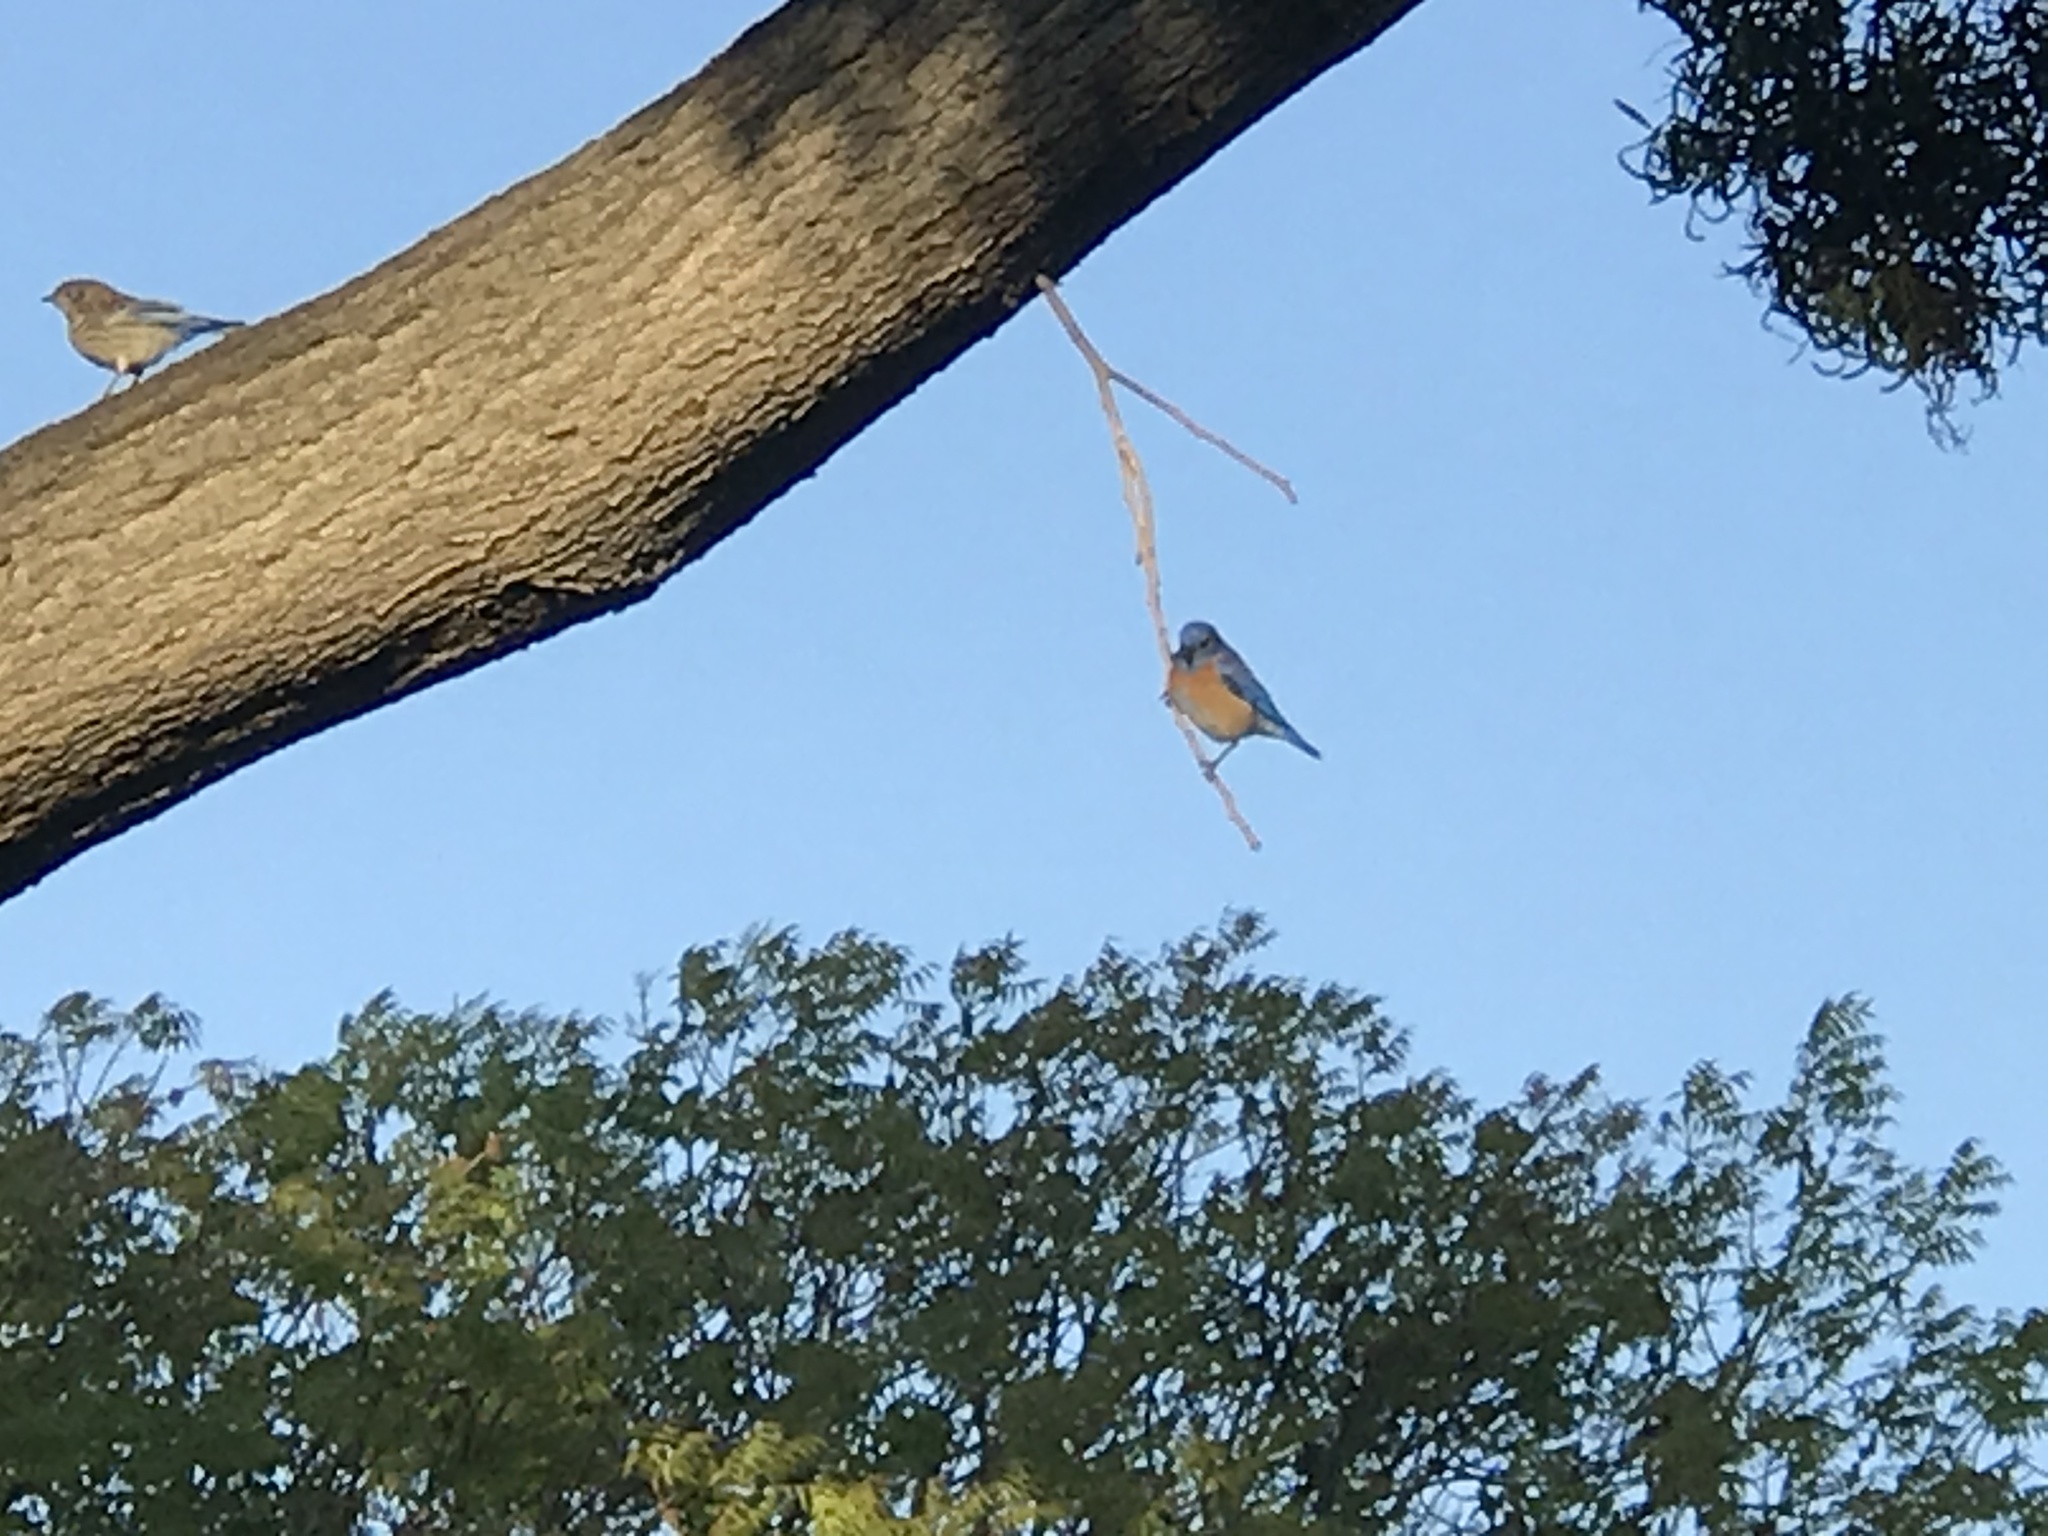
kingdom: Animalia
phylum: Chordata
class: Aves
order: Passeriformes
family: Turdidae
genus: Sialia
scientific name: Sialia mexicana
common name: Western bluebird
